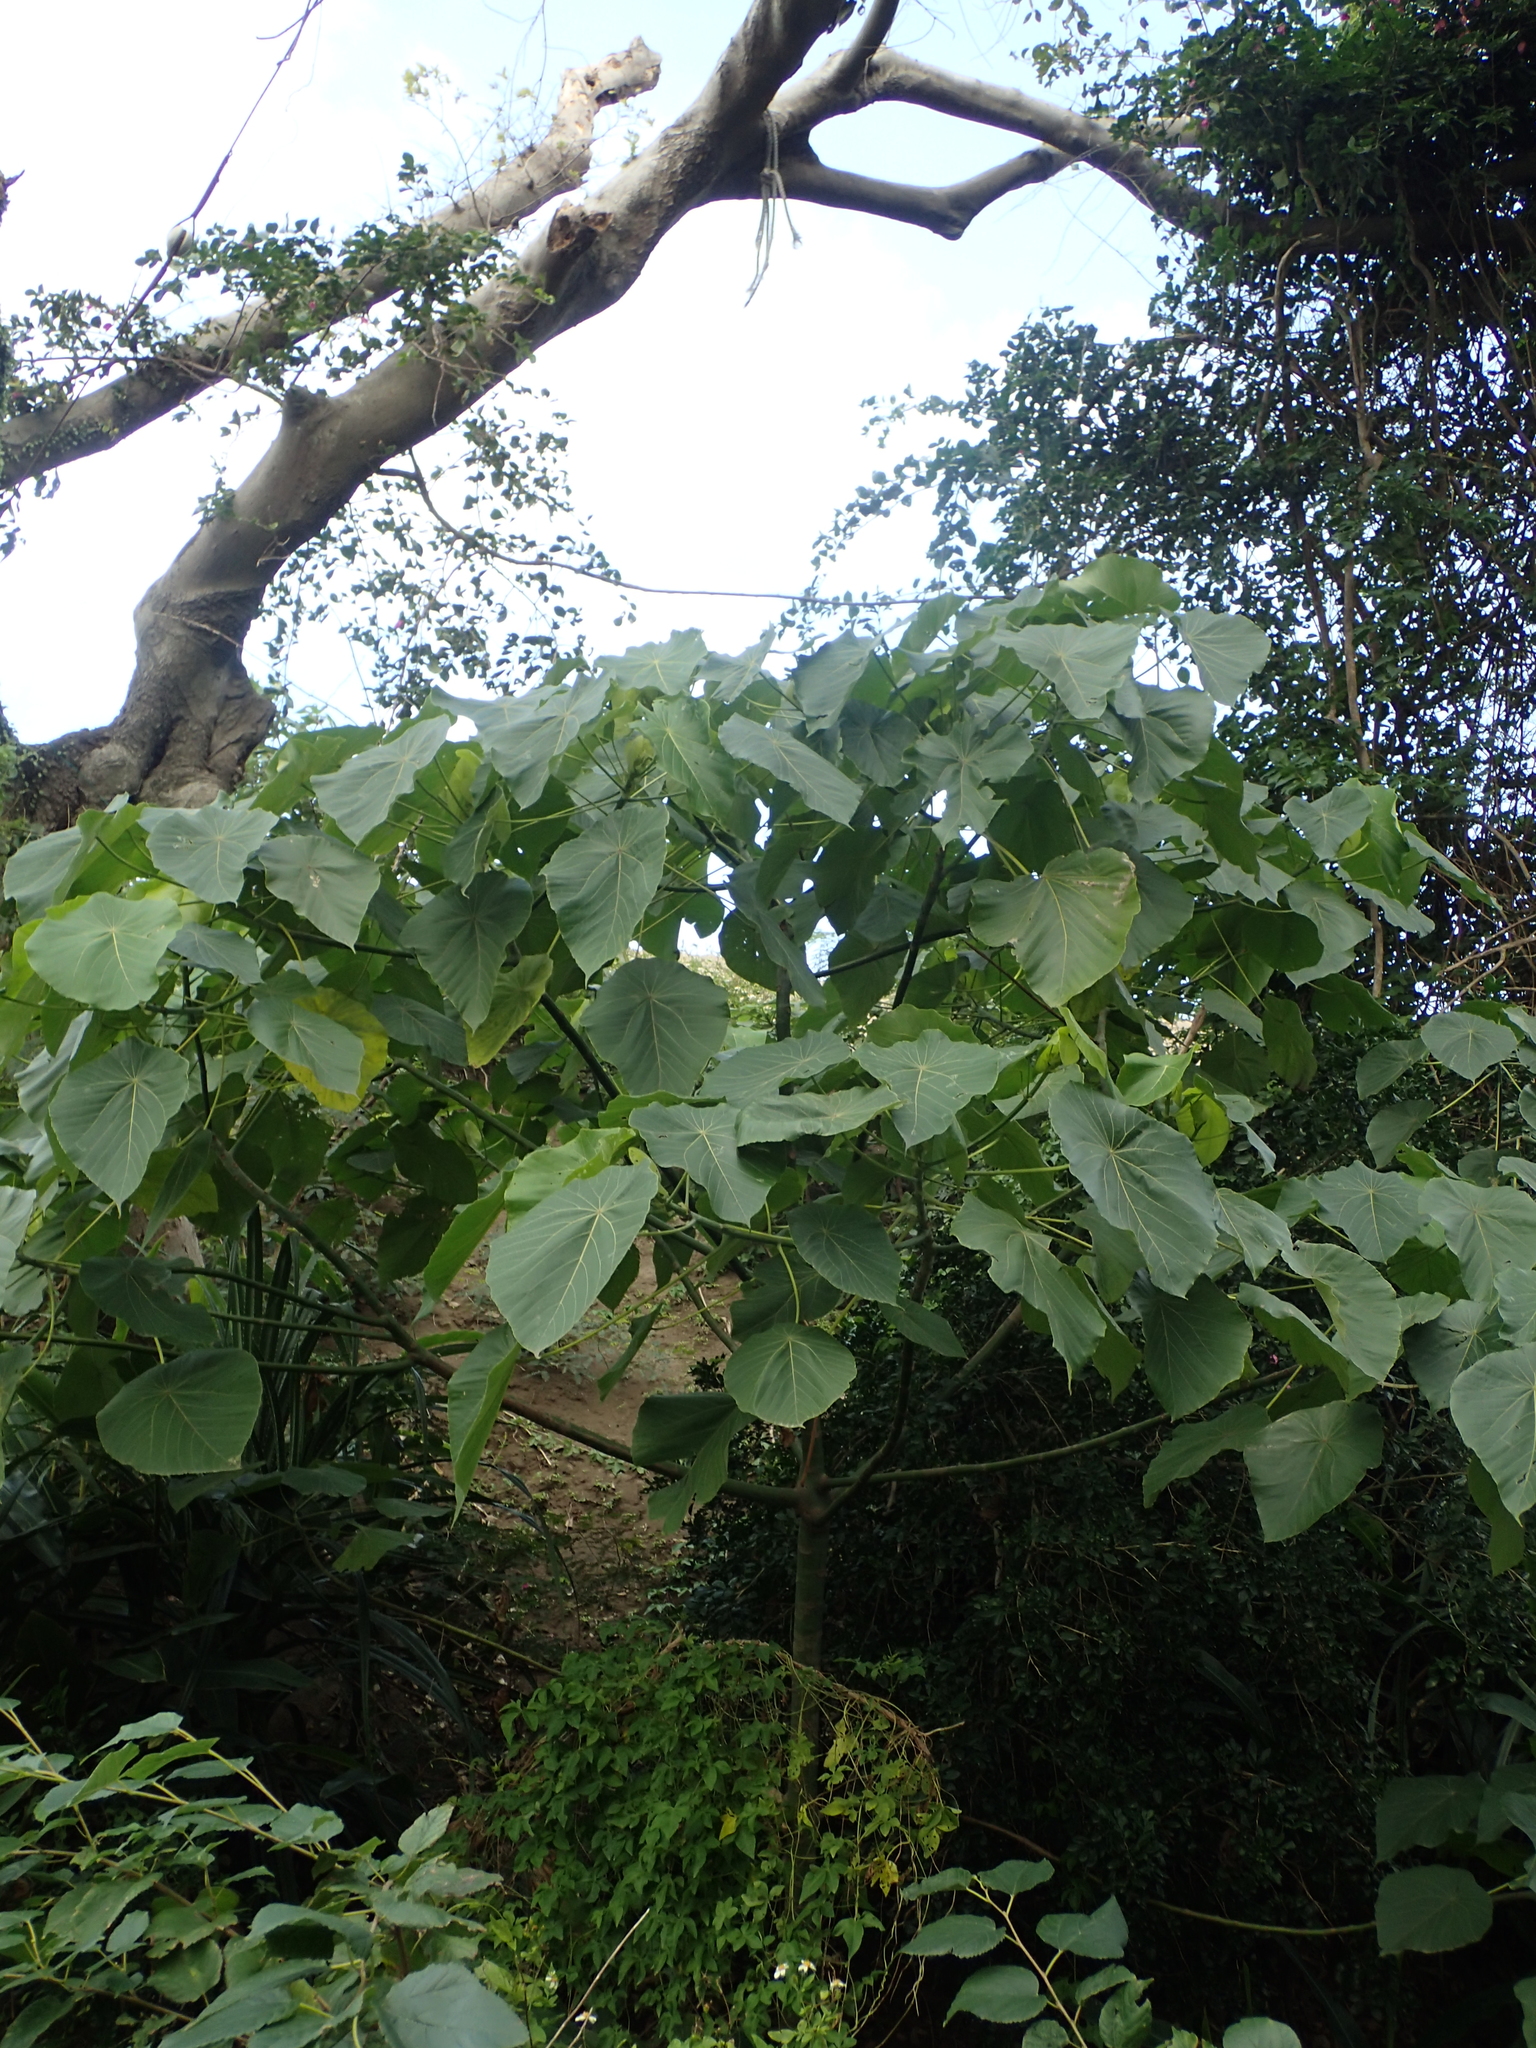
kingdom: Plantae
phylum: Tracheophyta
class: Magnoliopsida
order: Malpighiales
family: Euphorbiaceae
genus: Macaranga
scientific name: Macaranga tanarius
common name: Parasol leaf tree
